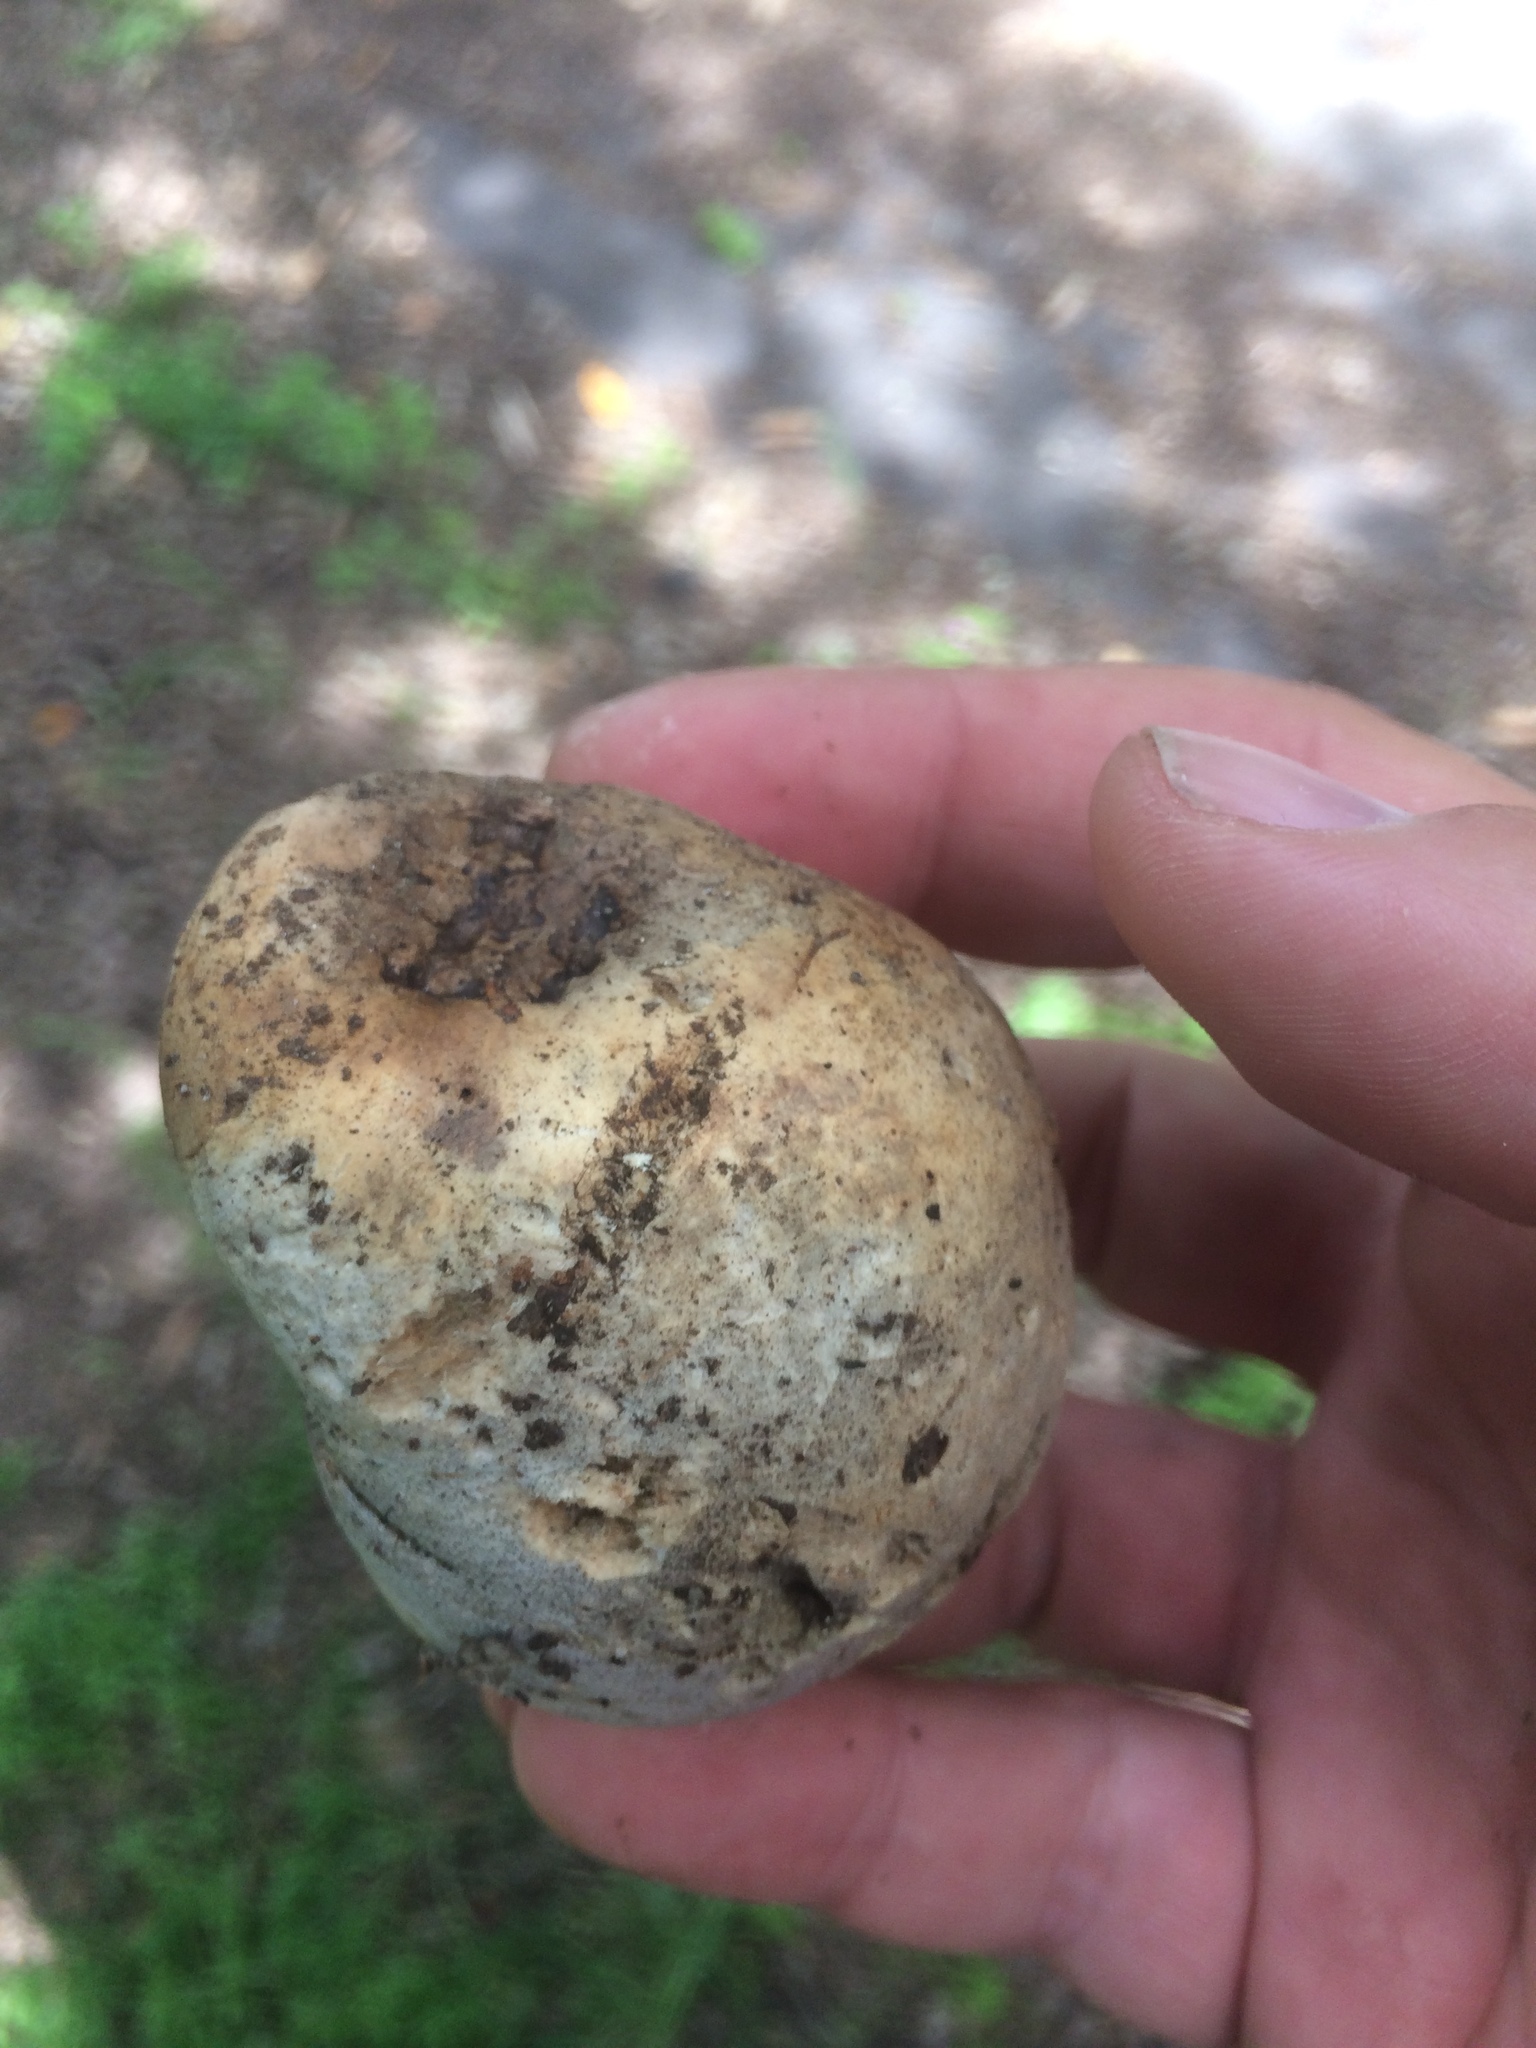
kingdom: Animalia
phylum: Arthropoda
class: Insecta
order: Hymenoptera
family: Cynipidae
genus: Andricus
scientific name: Andricus quercuscalifornicus
